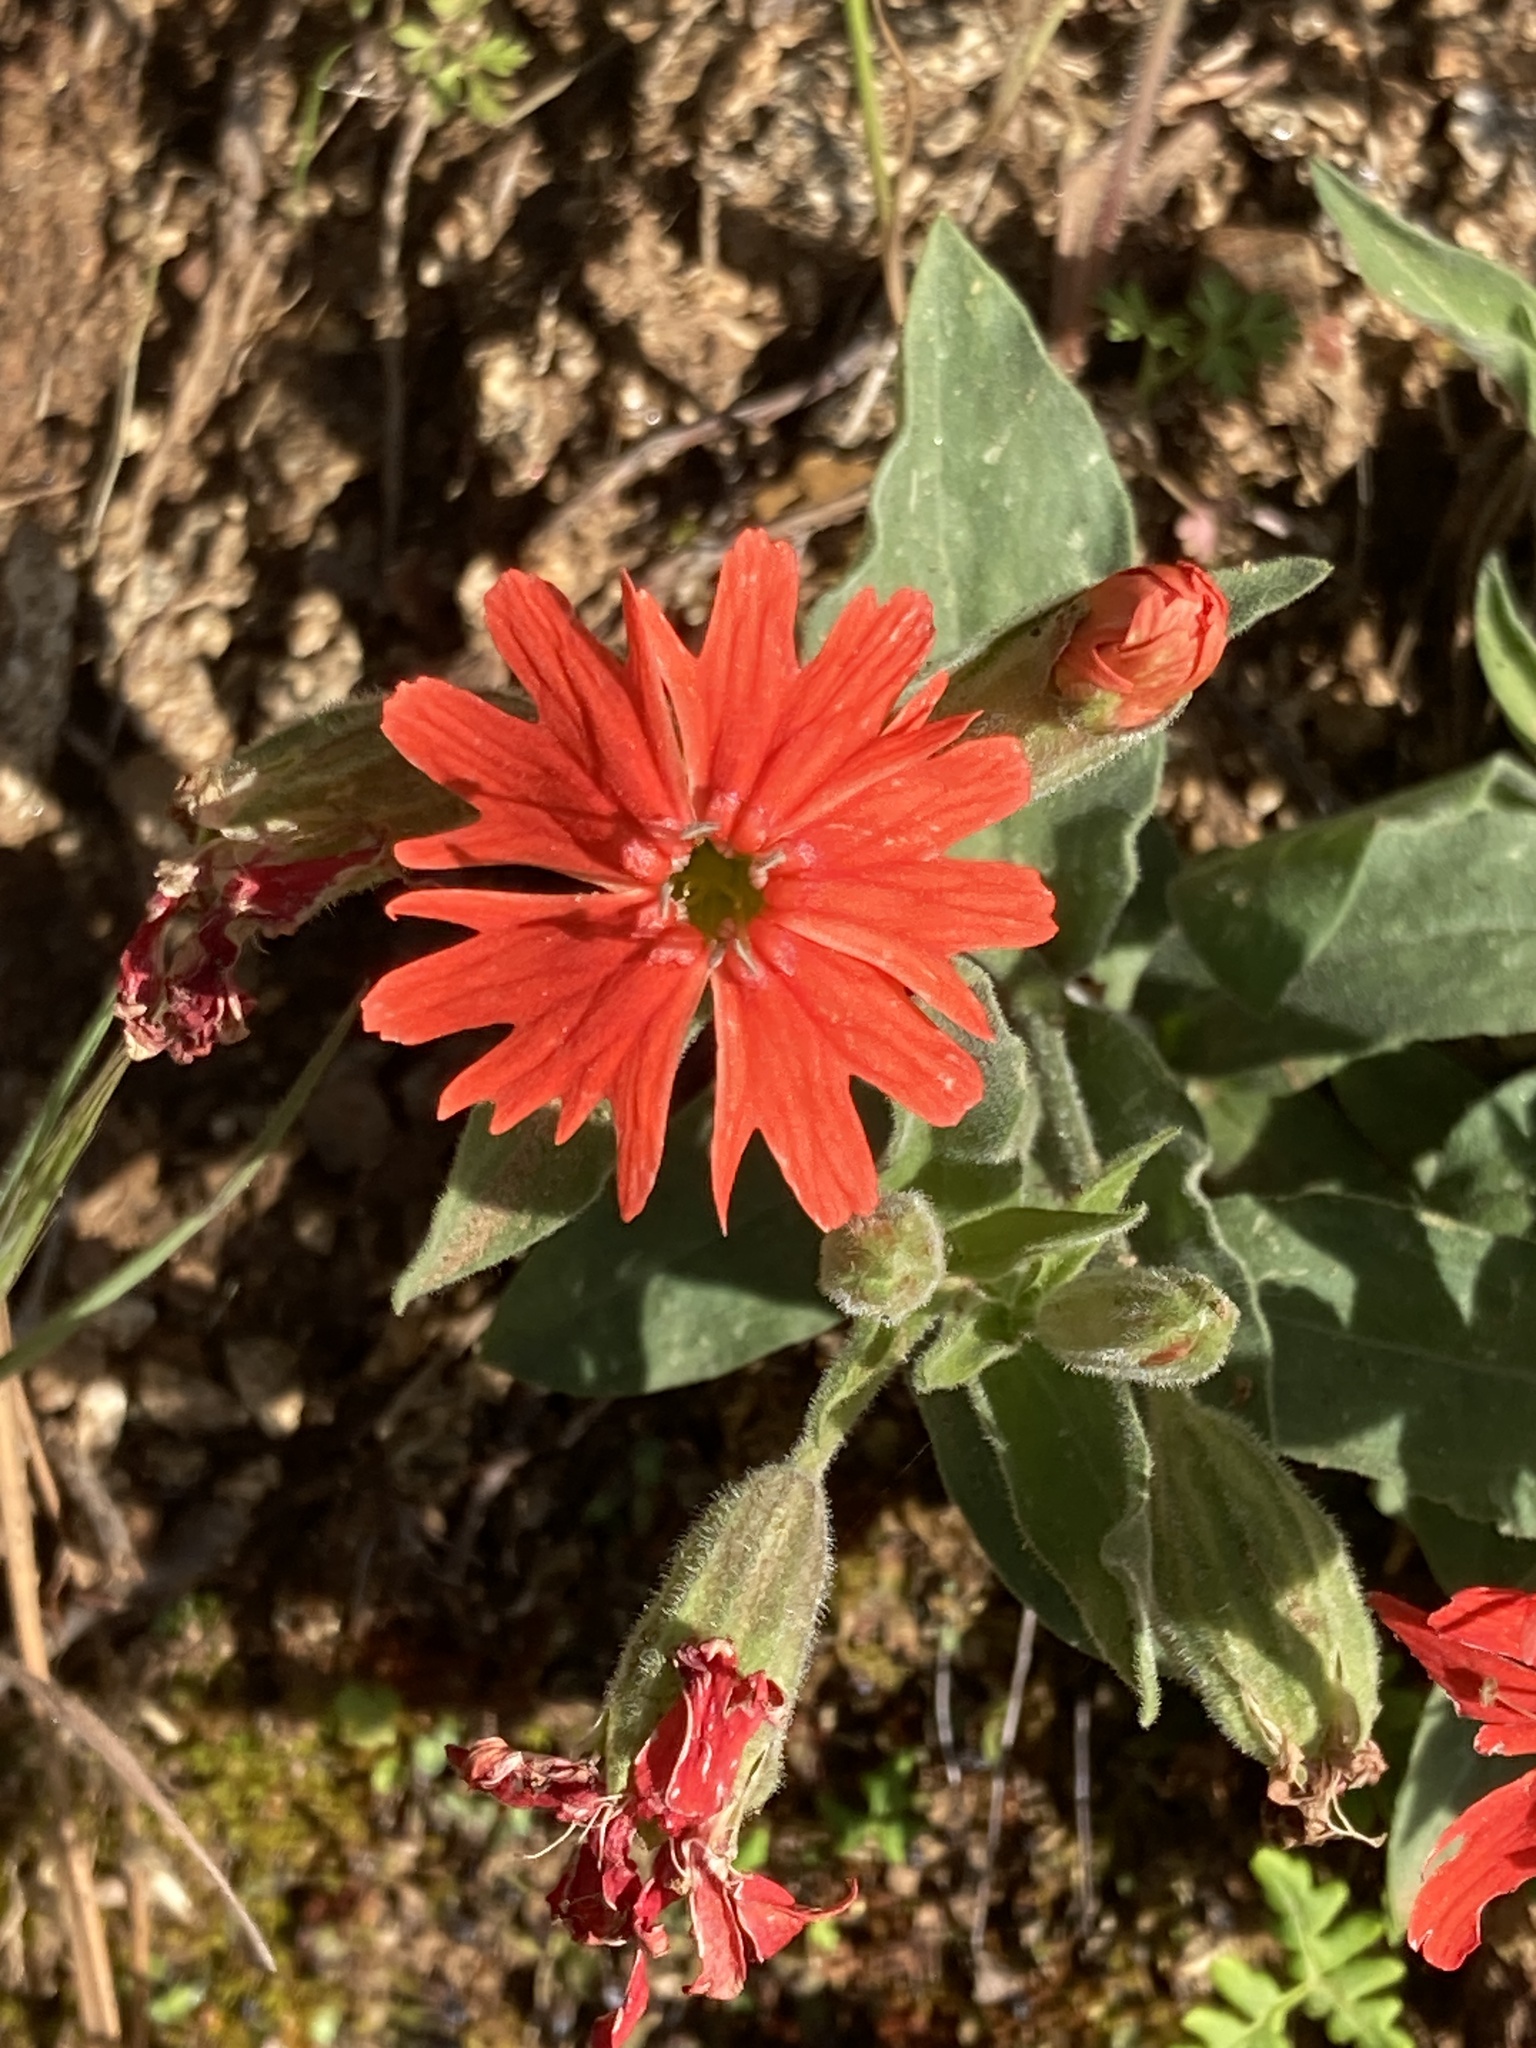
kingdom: Plantae
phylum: Tracheophyta
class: Magnoliopsida
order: Caryophyllales
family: Caryophyllaceae
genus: Silene
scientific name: Silene laciniata
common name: Indian-pink
